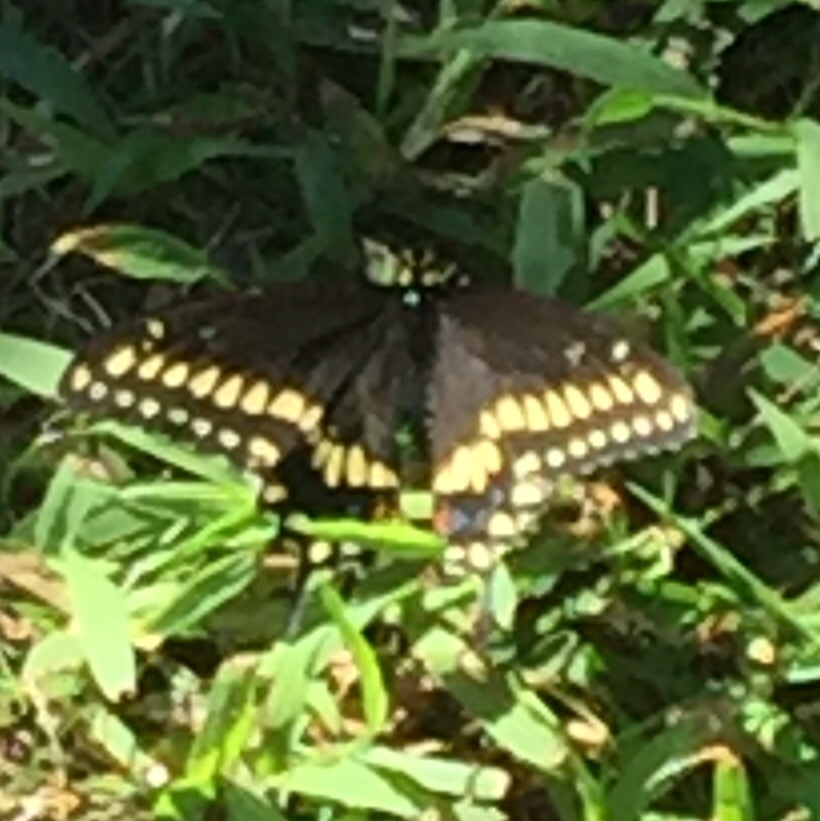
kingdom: Animalia
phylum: Arthropoda
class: Insecta
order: Lepidoptera
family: Papilionidae
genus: Papilio
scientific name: Papilio polyxenes
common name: Black swallowtail
